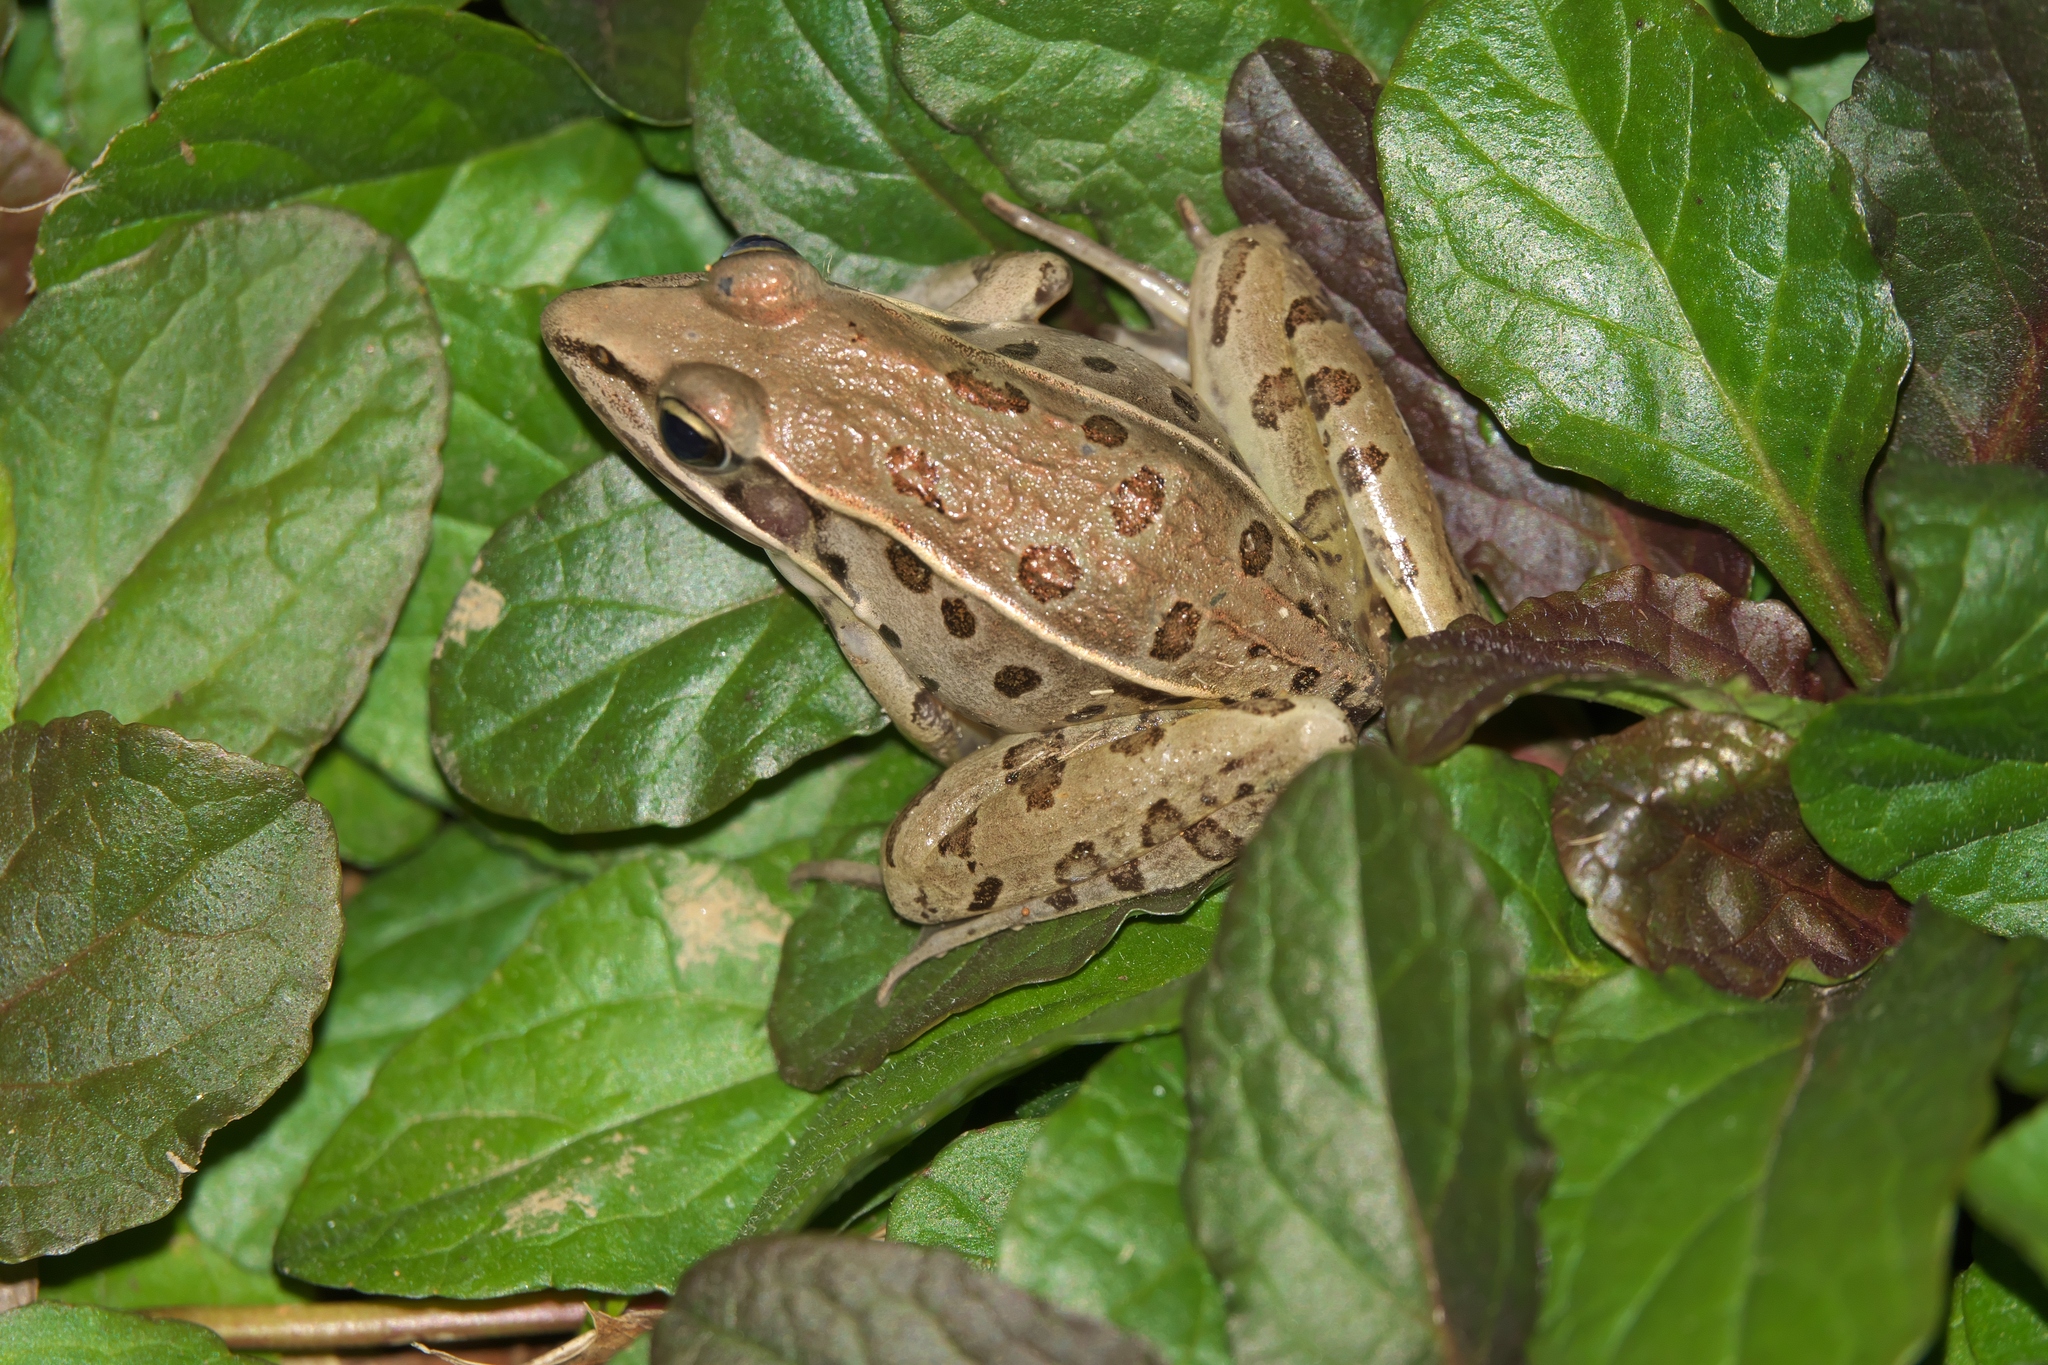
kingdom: Animalia
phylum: Chordata
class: Amphibia
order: Anura
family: Ranidae
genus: Lithobates
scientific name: Lithobates sphenocephalus
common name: Southern leopard frog
